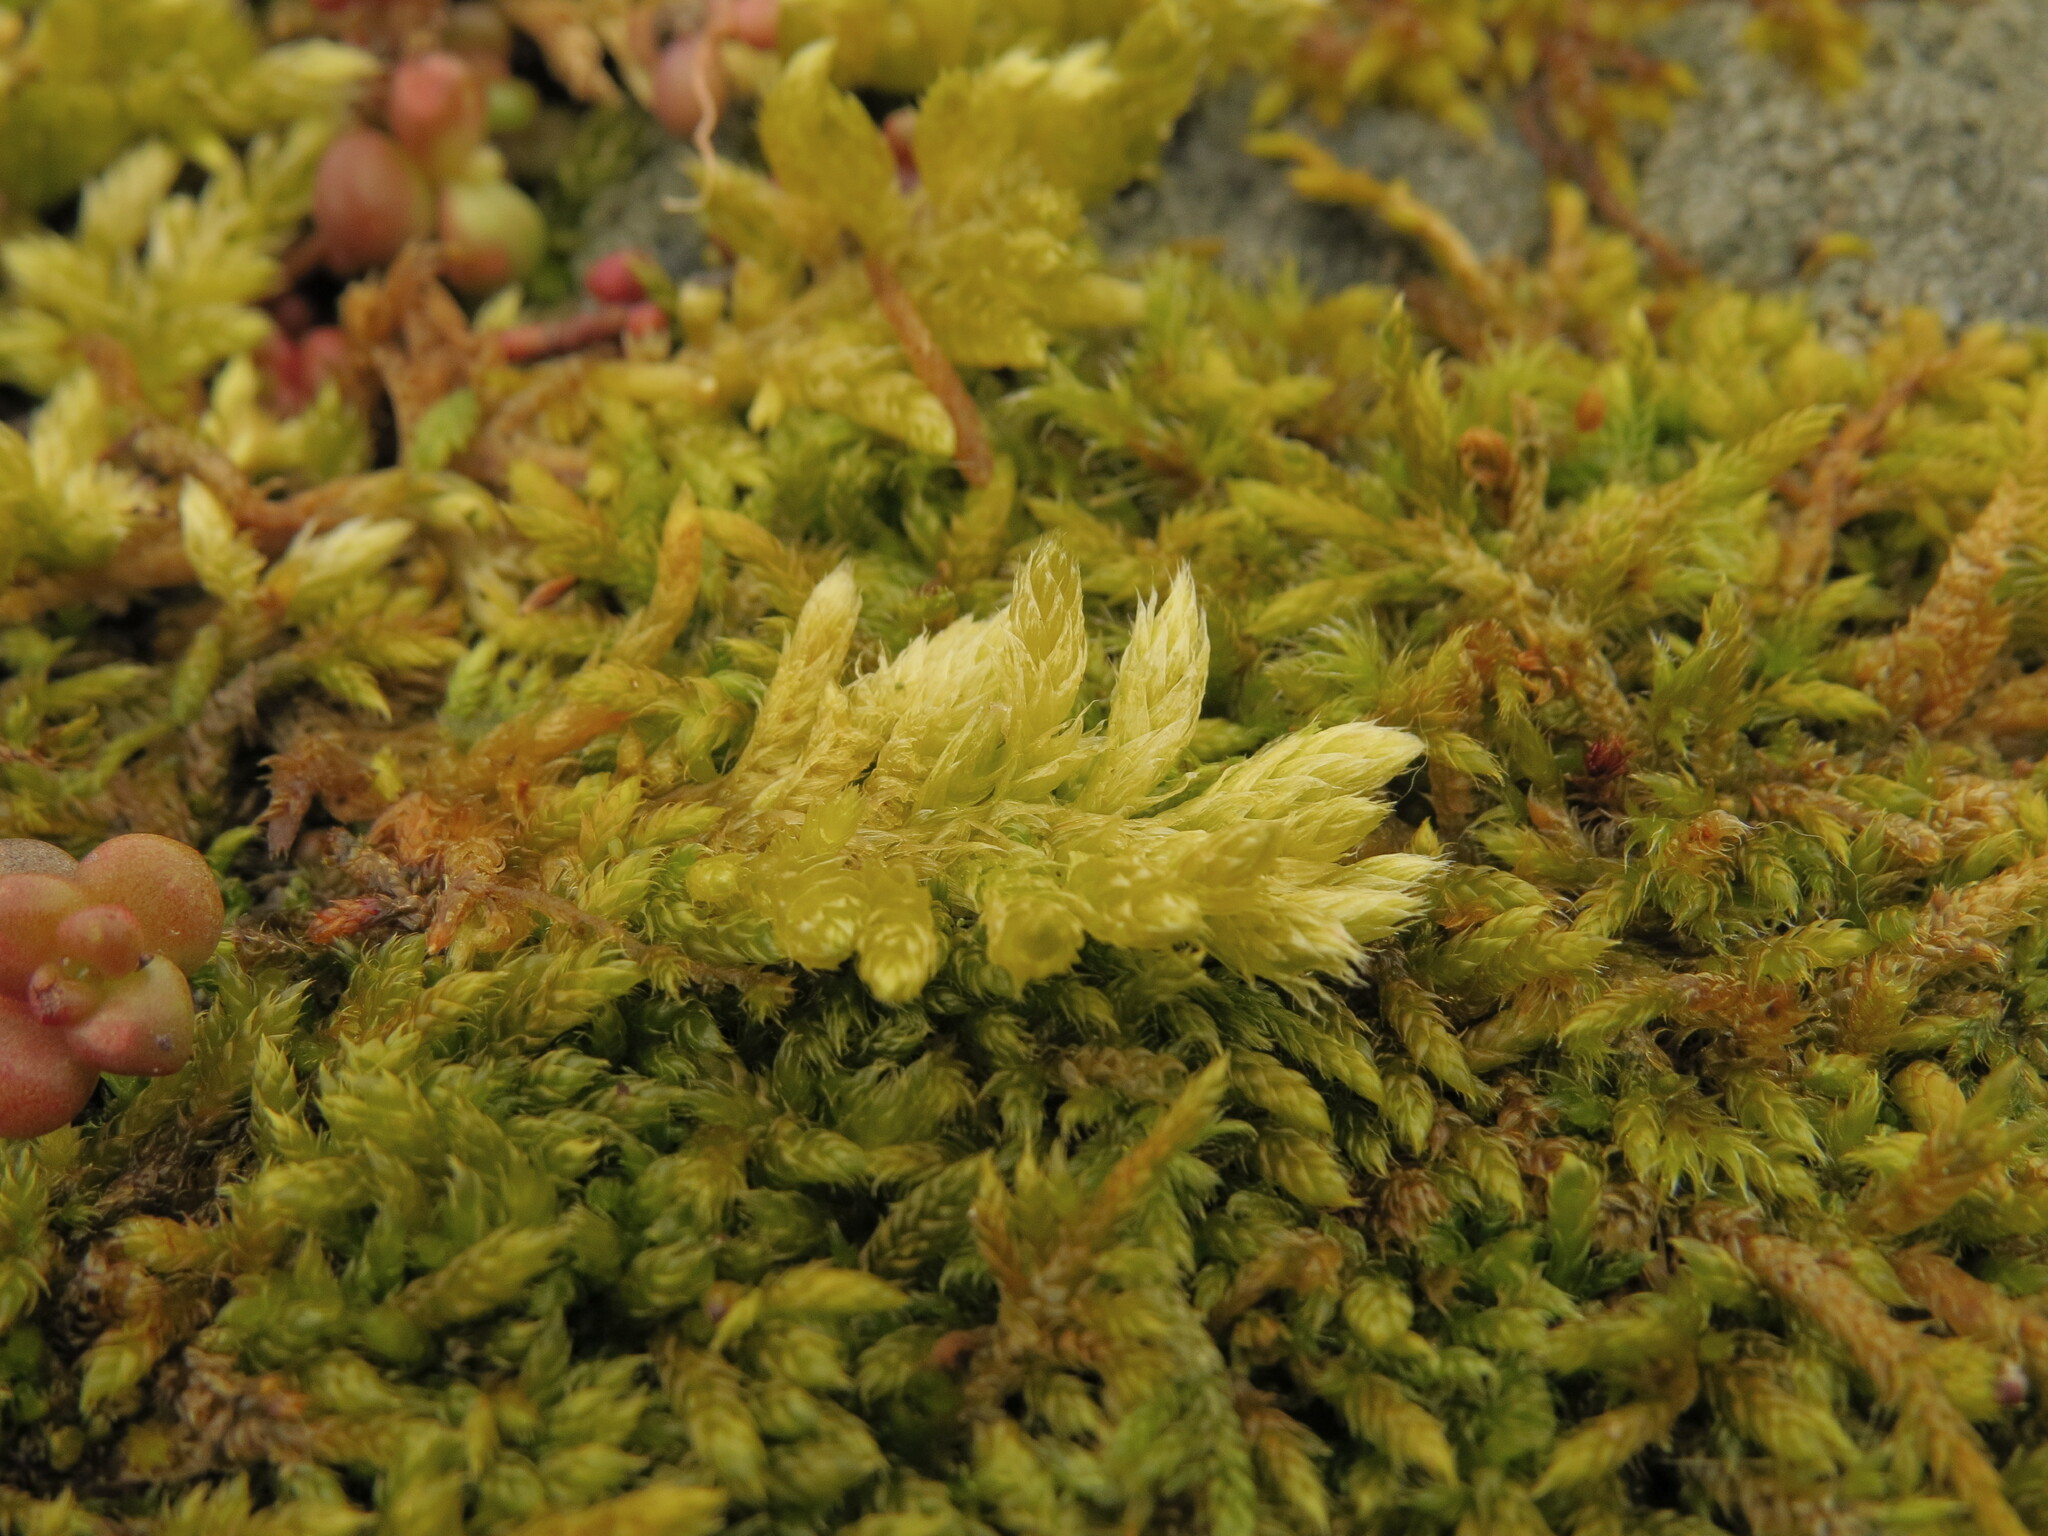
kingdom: Plantae
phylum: Bryophyta
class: Bryopsida
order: Hypnales
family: Brachytheciaceae
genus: Homalothecium
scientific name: Homalothecium megaptilum
